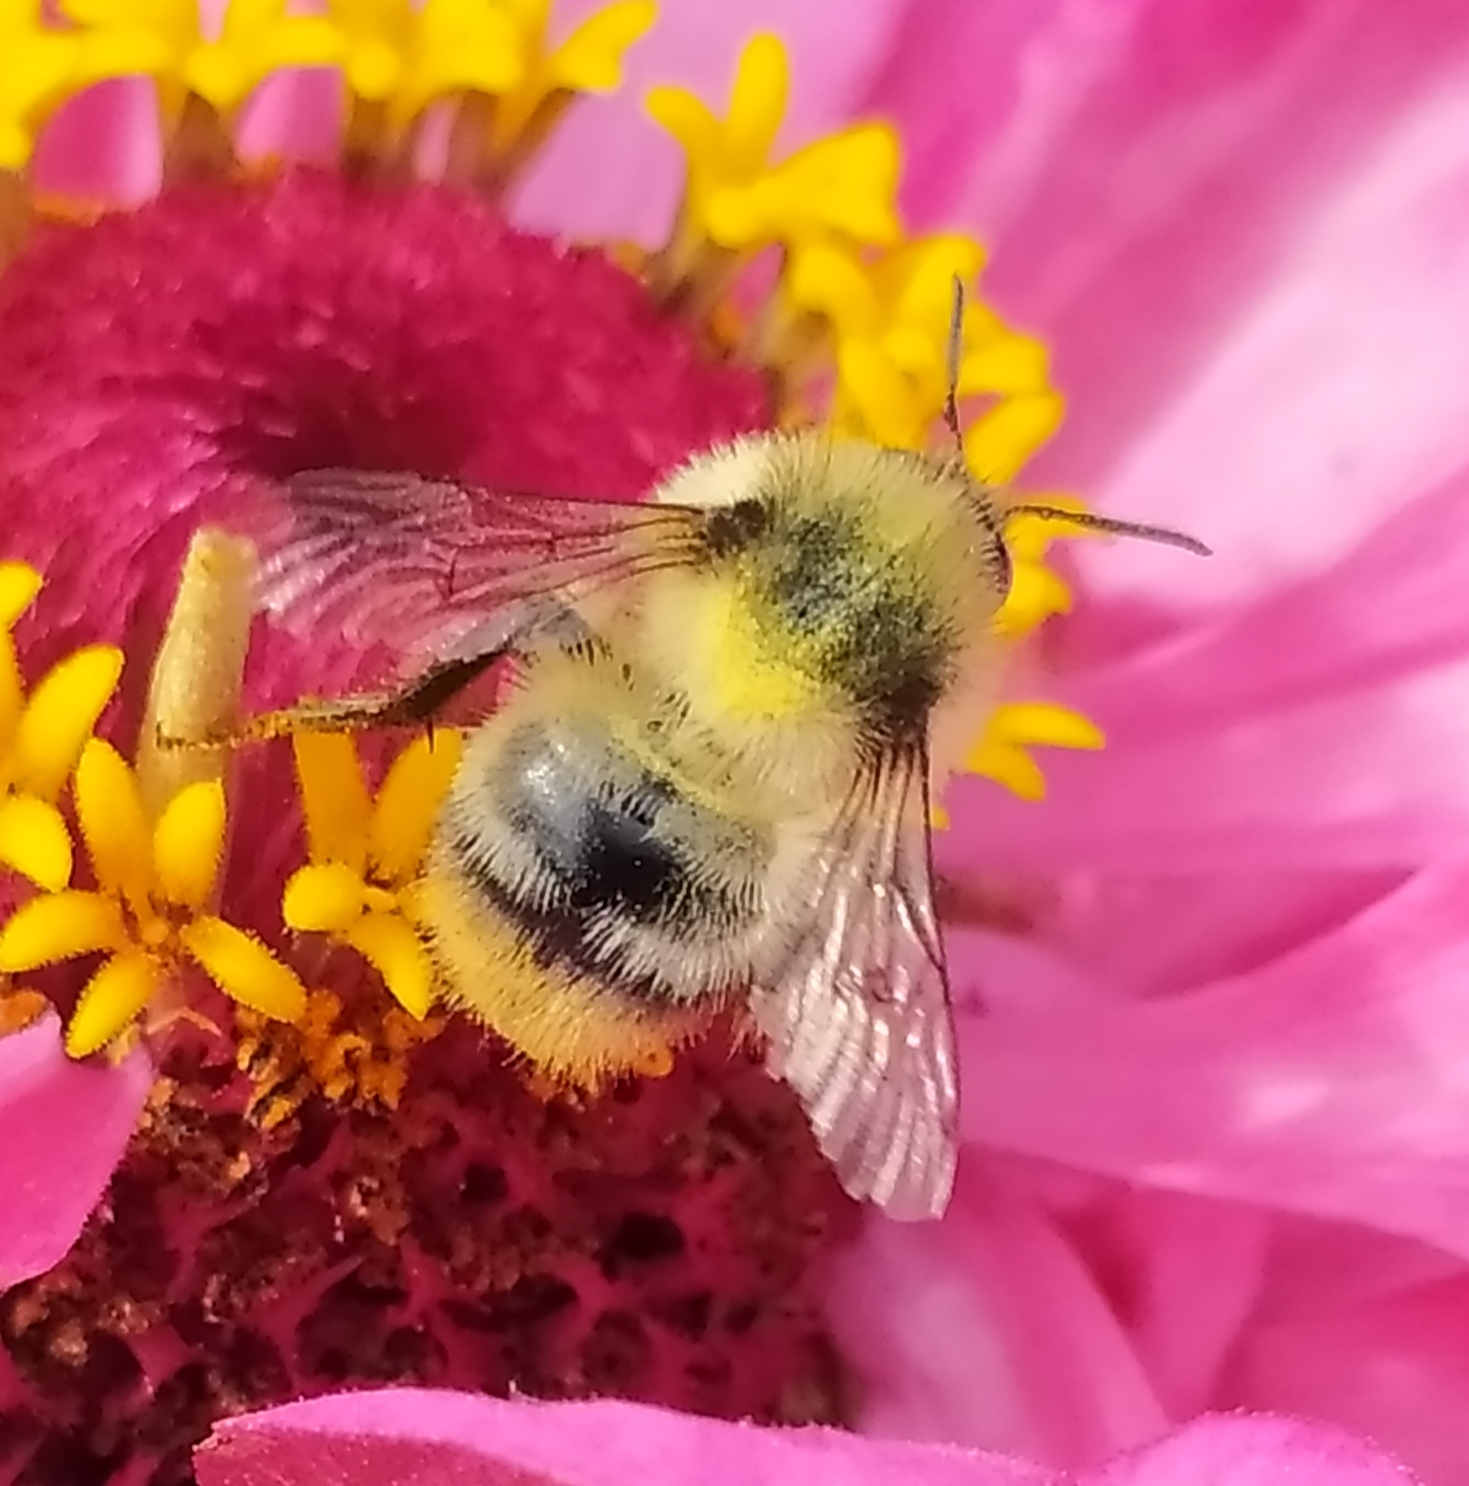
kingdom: Animalia
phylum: Arthropoda
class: Insecta
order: Hymenoptera
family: Apidae
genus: Bombus
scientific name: Bombus sylvarum
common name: Shrill carder bee
